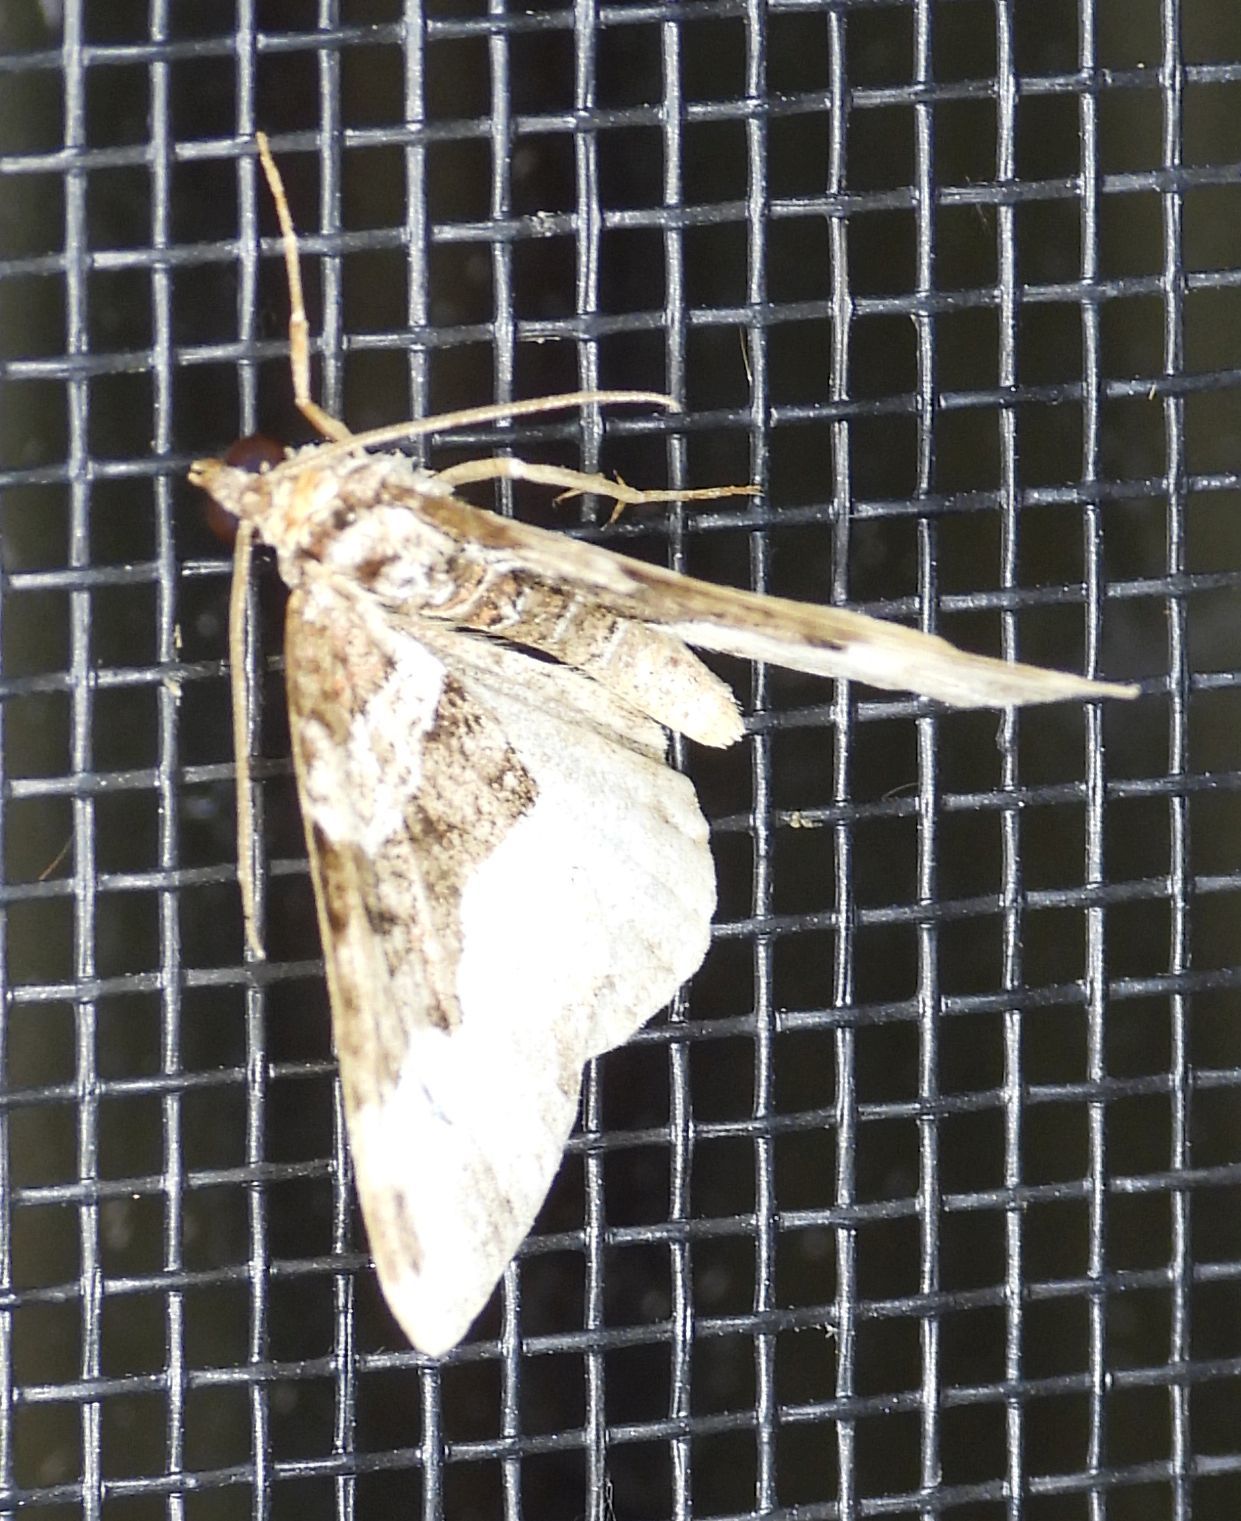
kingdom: Animalia
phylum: Arthropoda
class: Insecta
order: Lepidoptera
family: Geometridae
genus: Euphyia
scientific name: Euphyia intermediata
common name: Sharp-angled carpet
